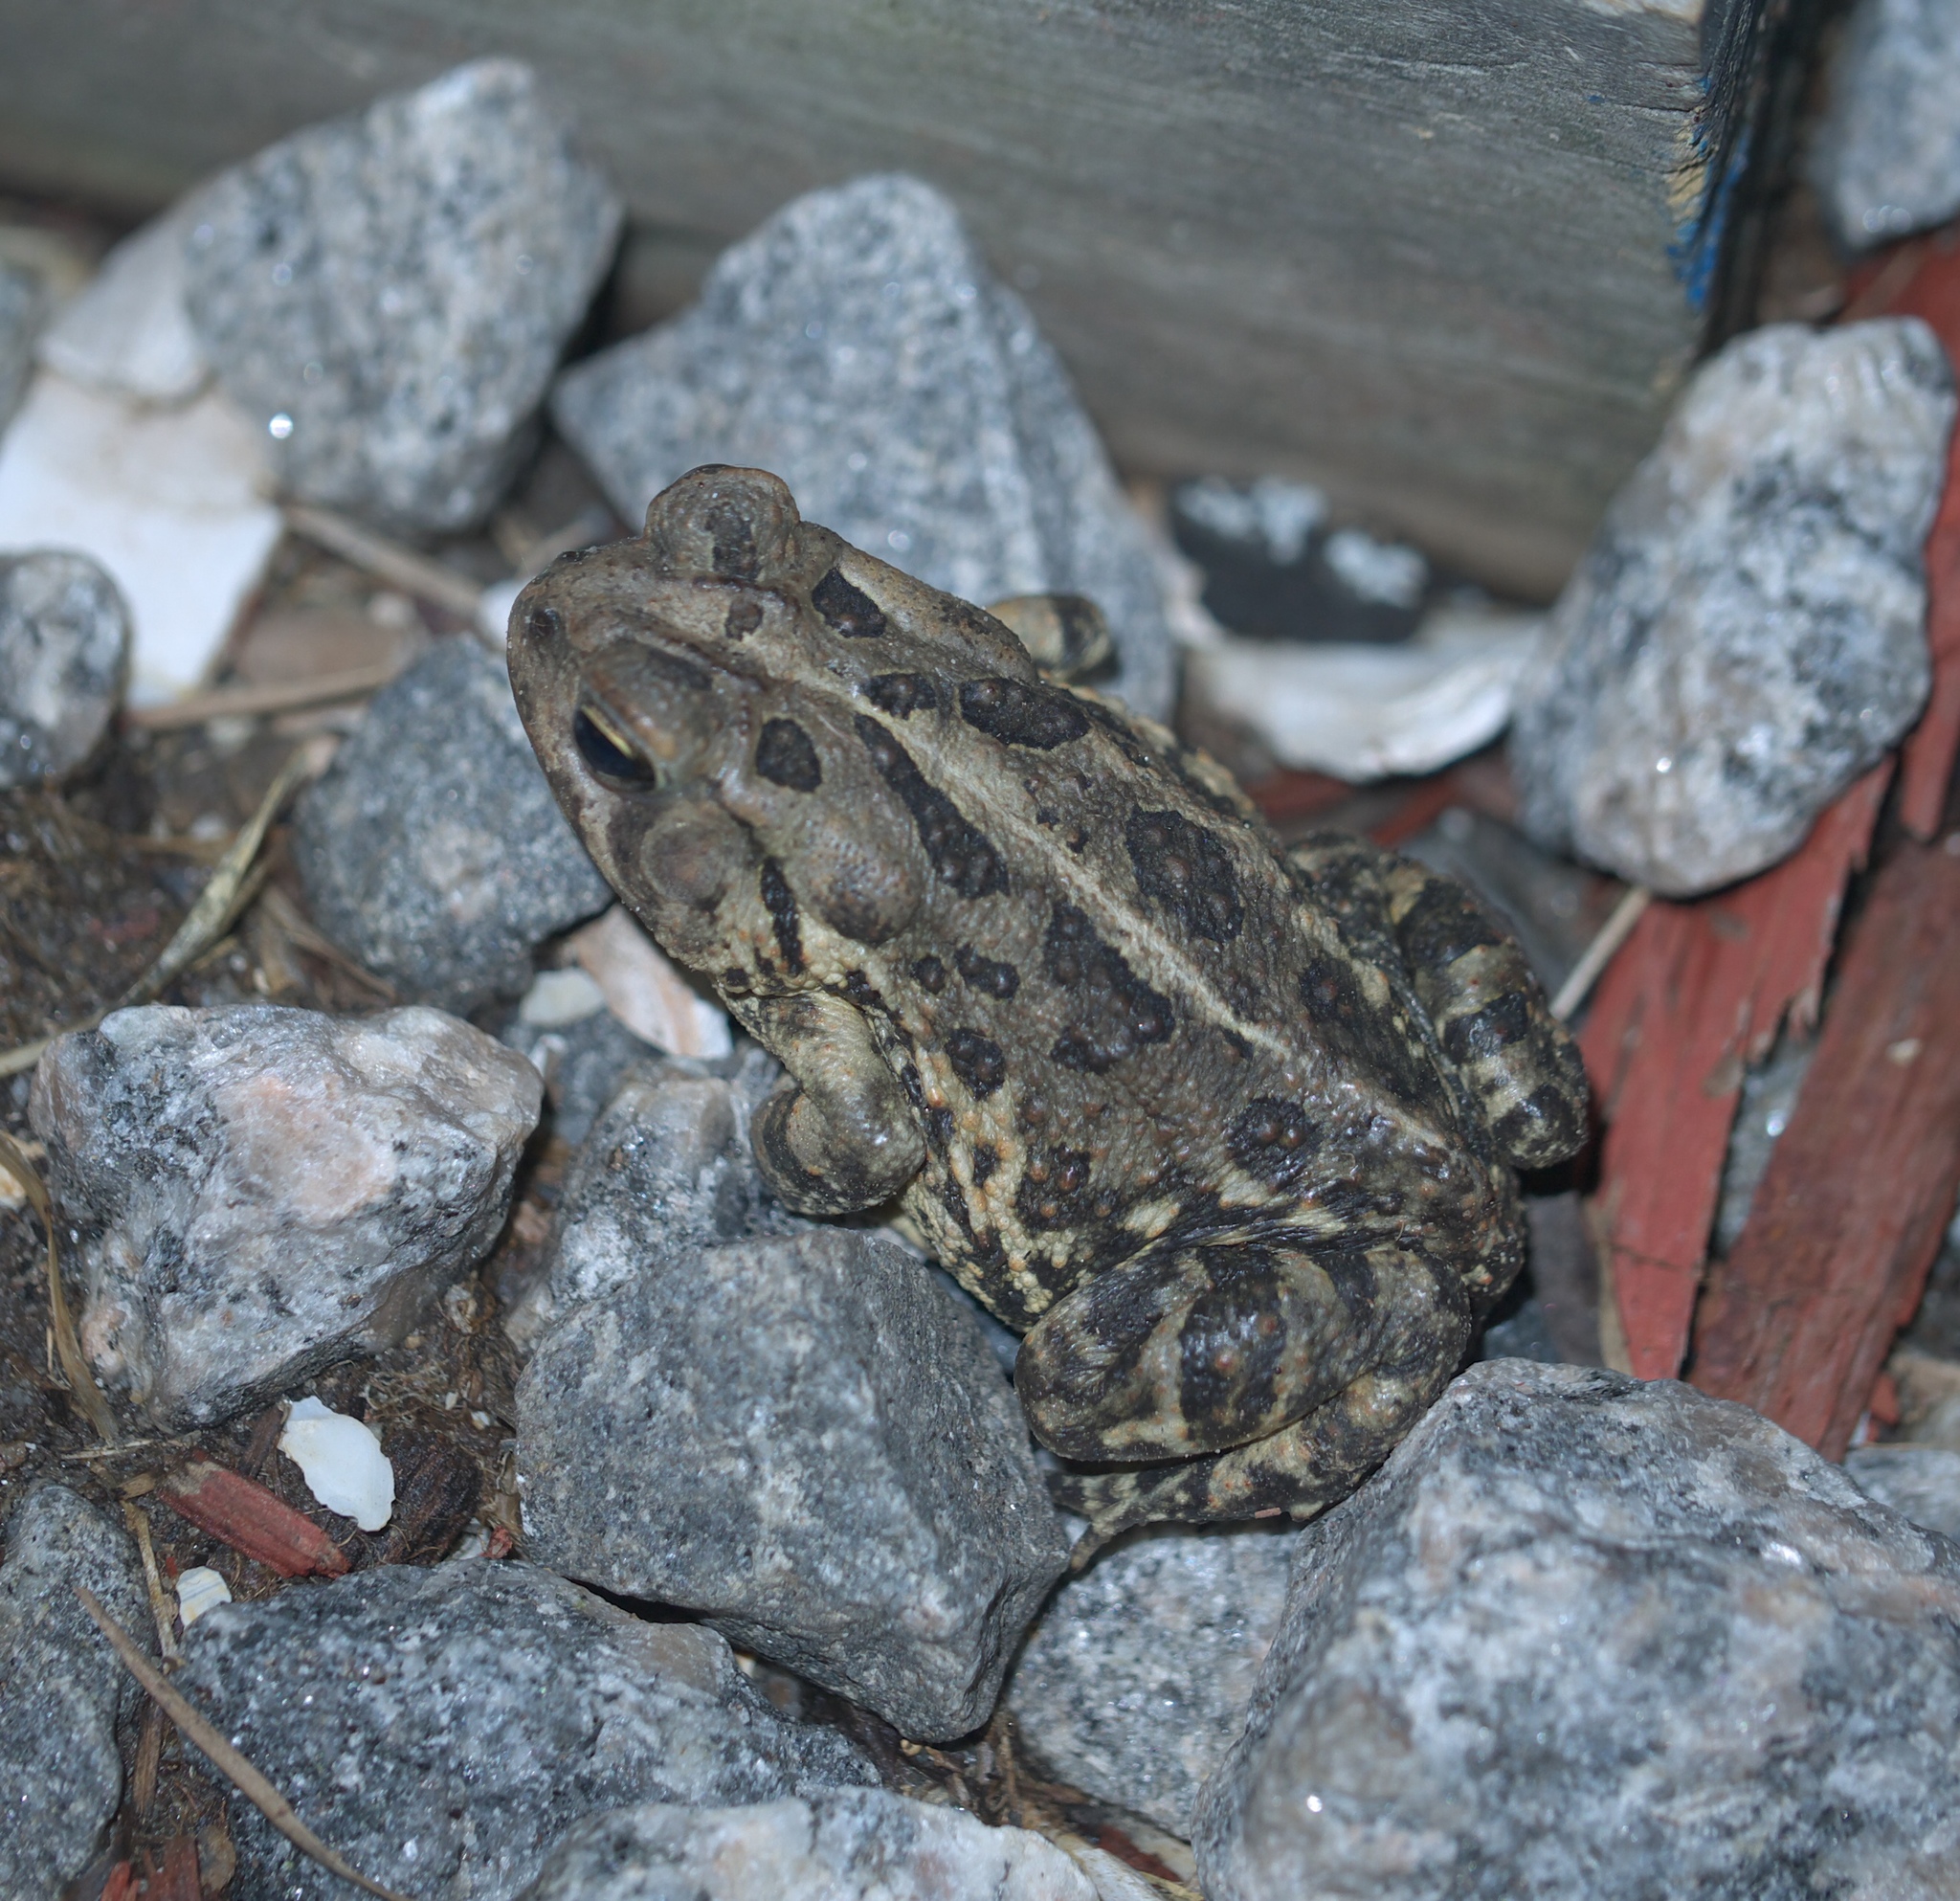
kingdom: Animalia
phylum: Chordata
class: Amphibia
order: Anura
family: Bufonidae
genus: Anaxyrus
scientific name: Anaxyrus fowleri
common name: Fowler's toad
